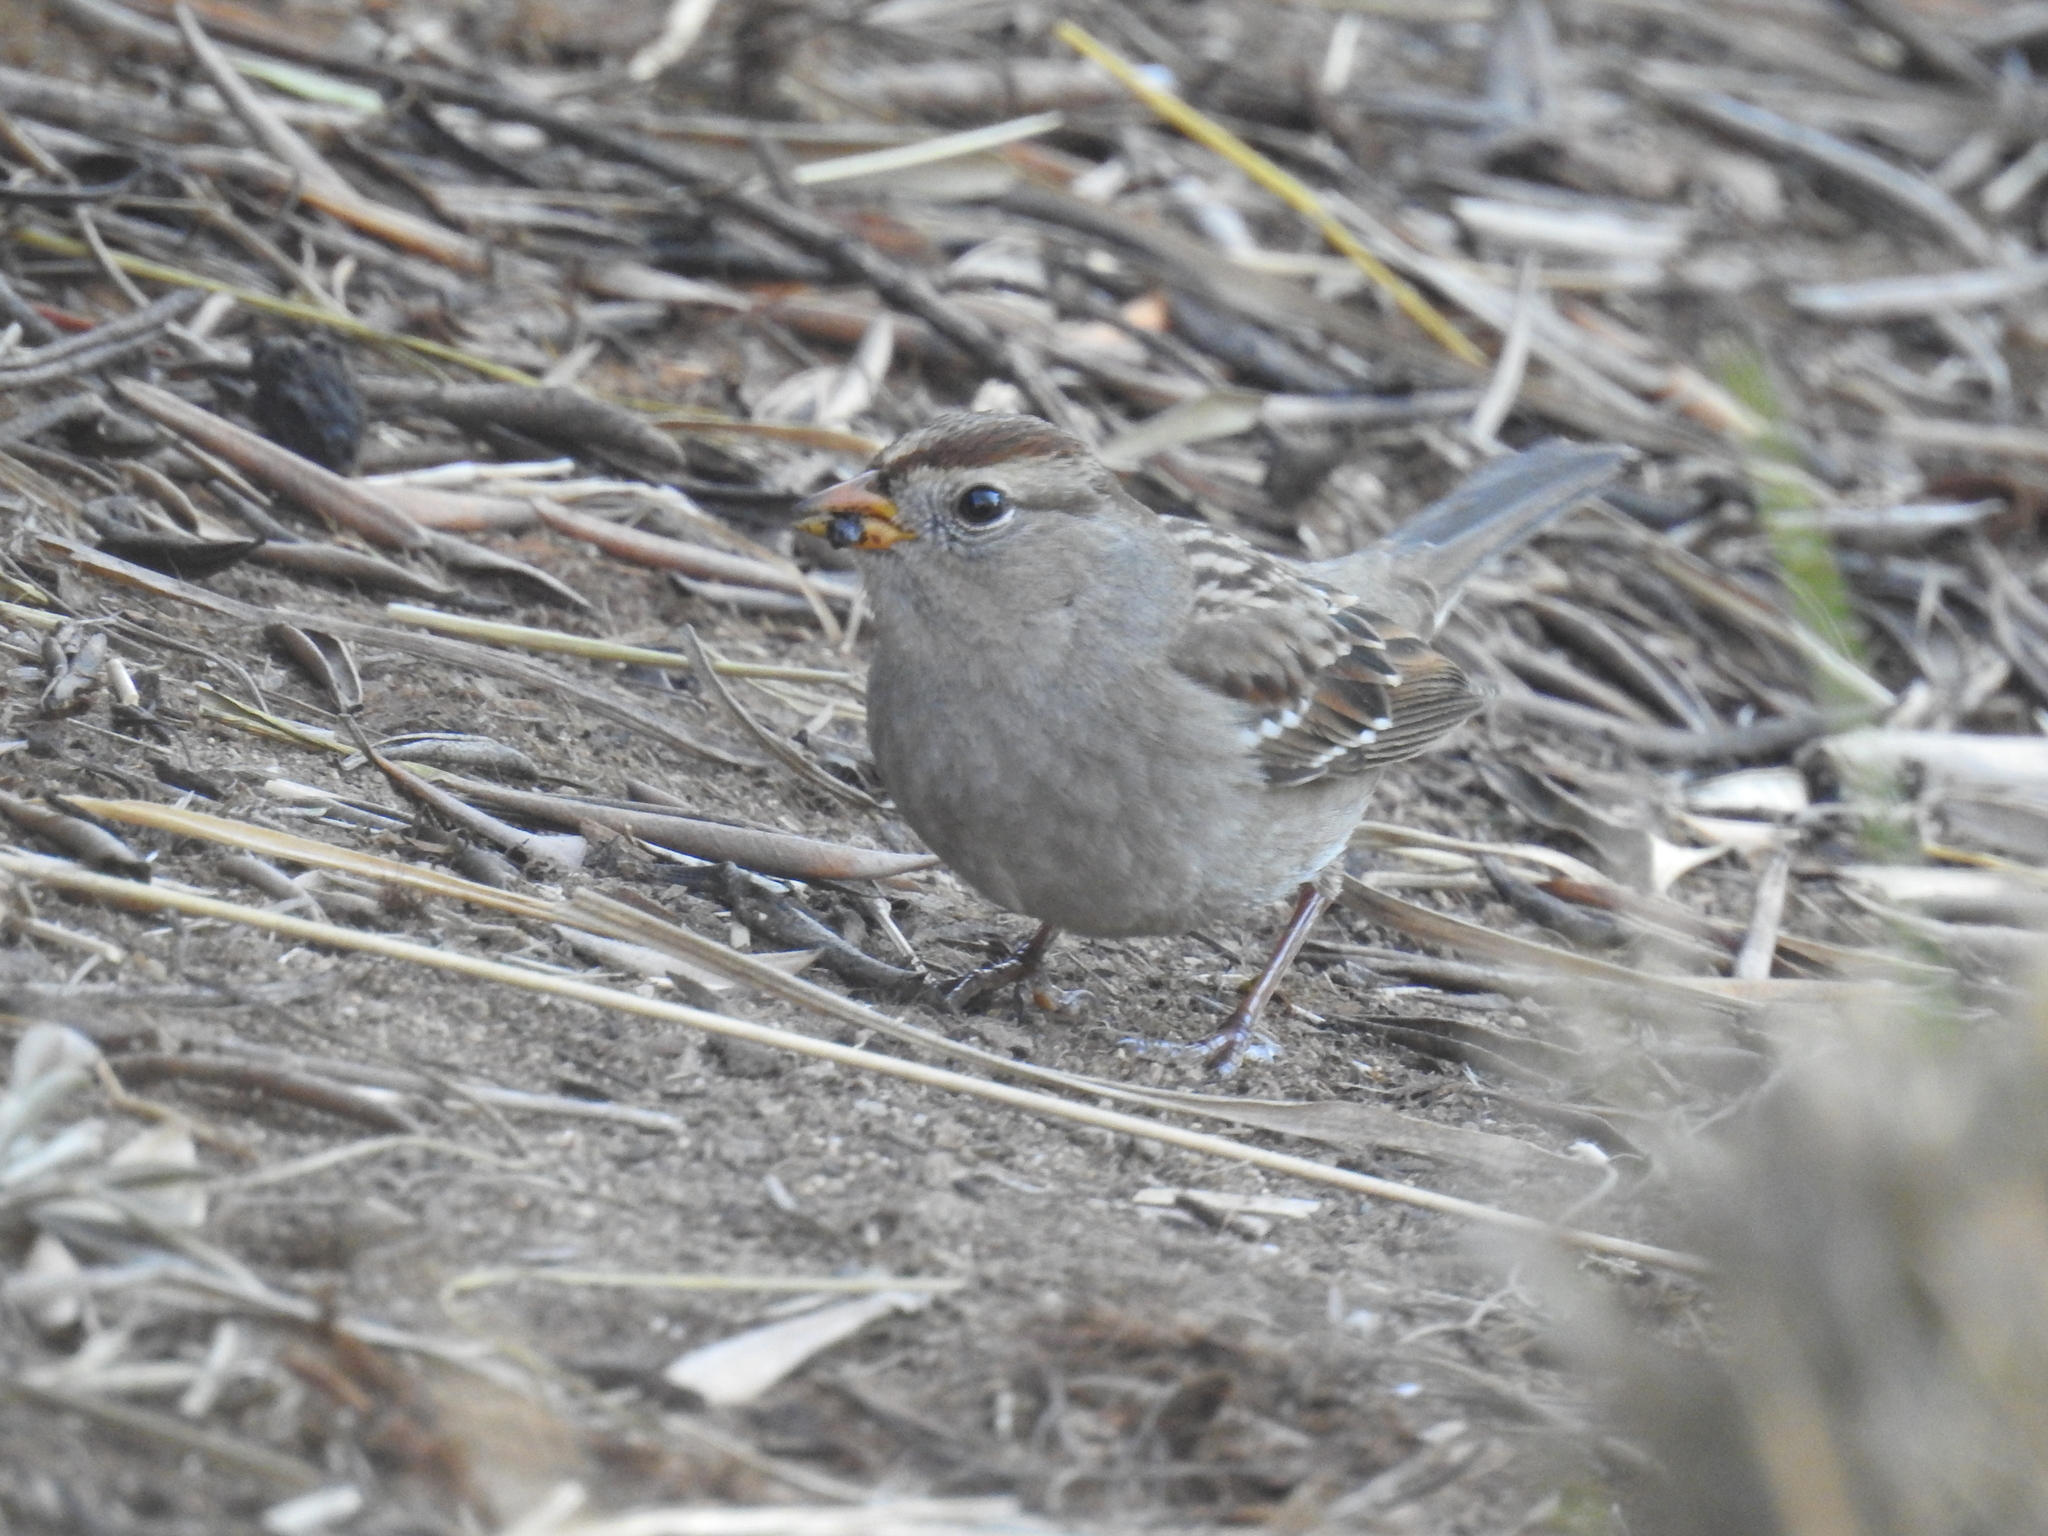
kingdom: Animalia
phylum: Chordata
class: Aves
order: Passeriformes
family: Passerellidae
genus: Zonotrichia
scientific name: Zonotrichia leucophrys
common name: White-crowned sparrow
